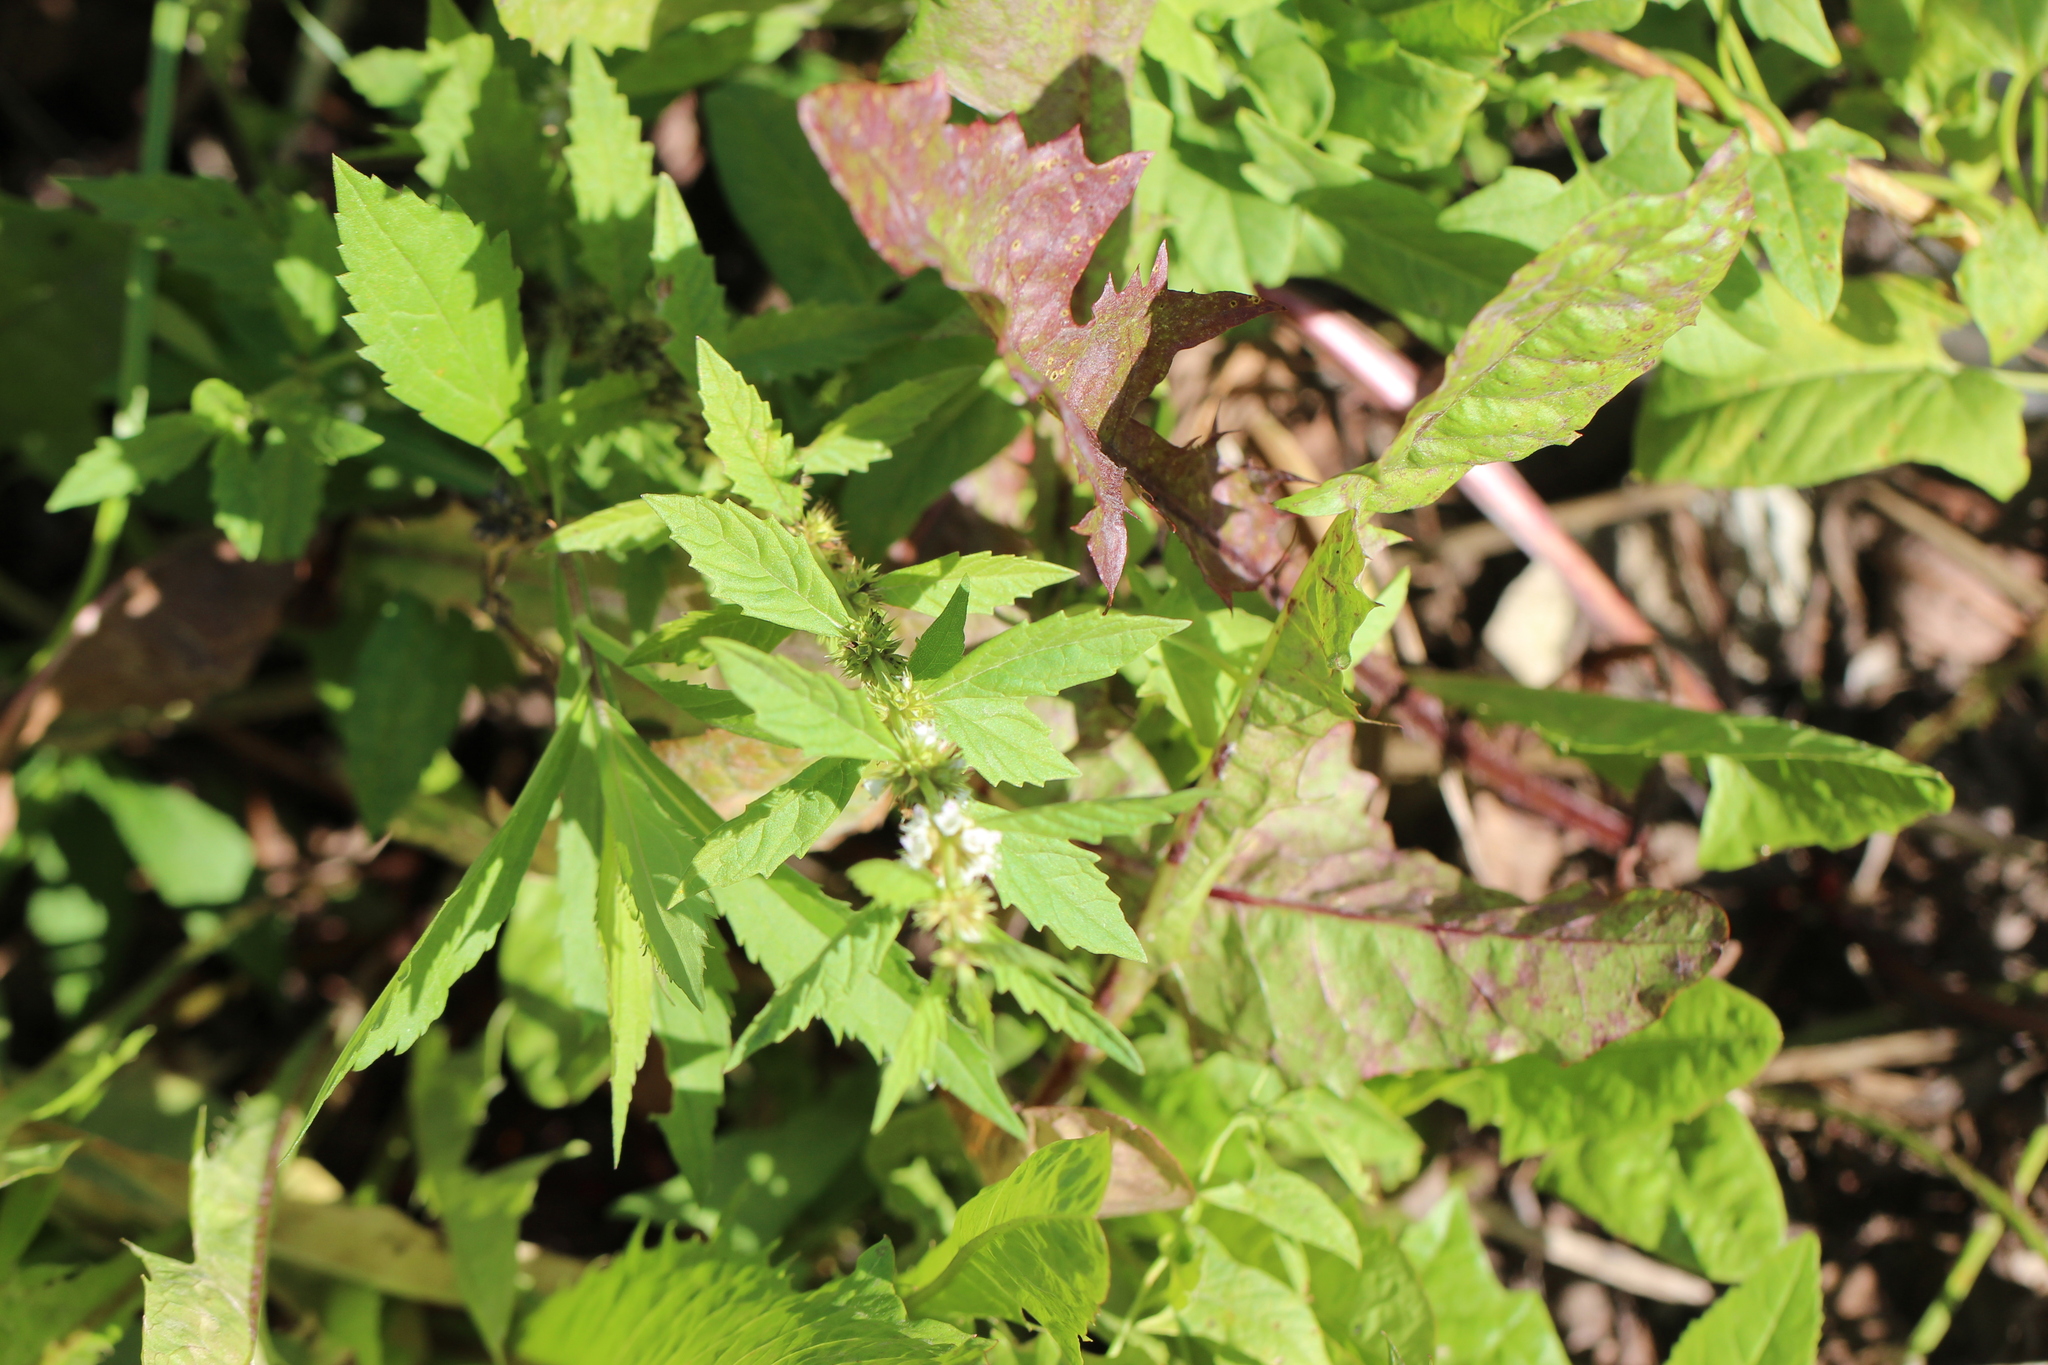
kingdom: Plantae
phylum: Tracheophyta
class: Magnoliopsida
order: Lamiales
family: Lamiaceae
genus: Lycopus
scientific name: Lycopus europaeus
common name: European bugleweed
